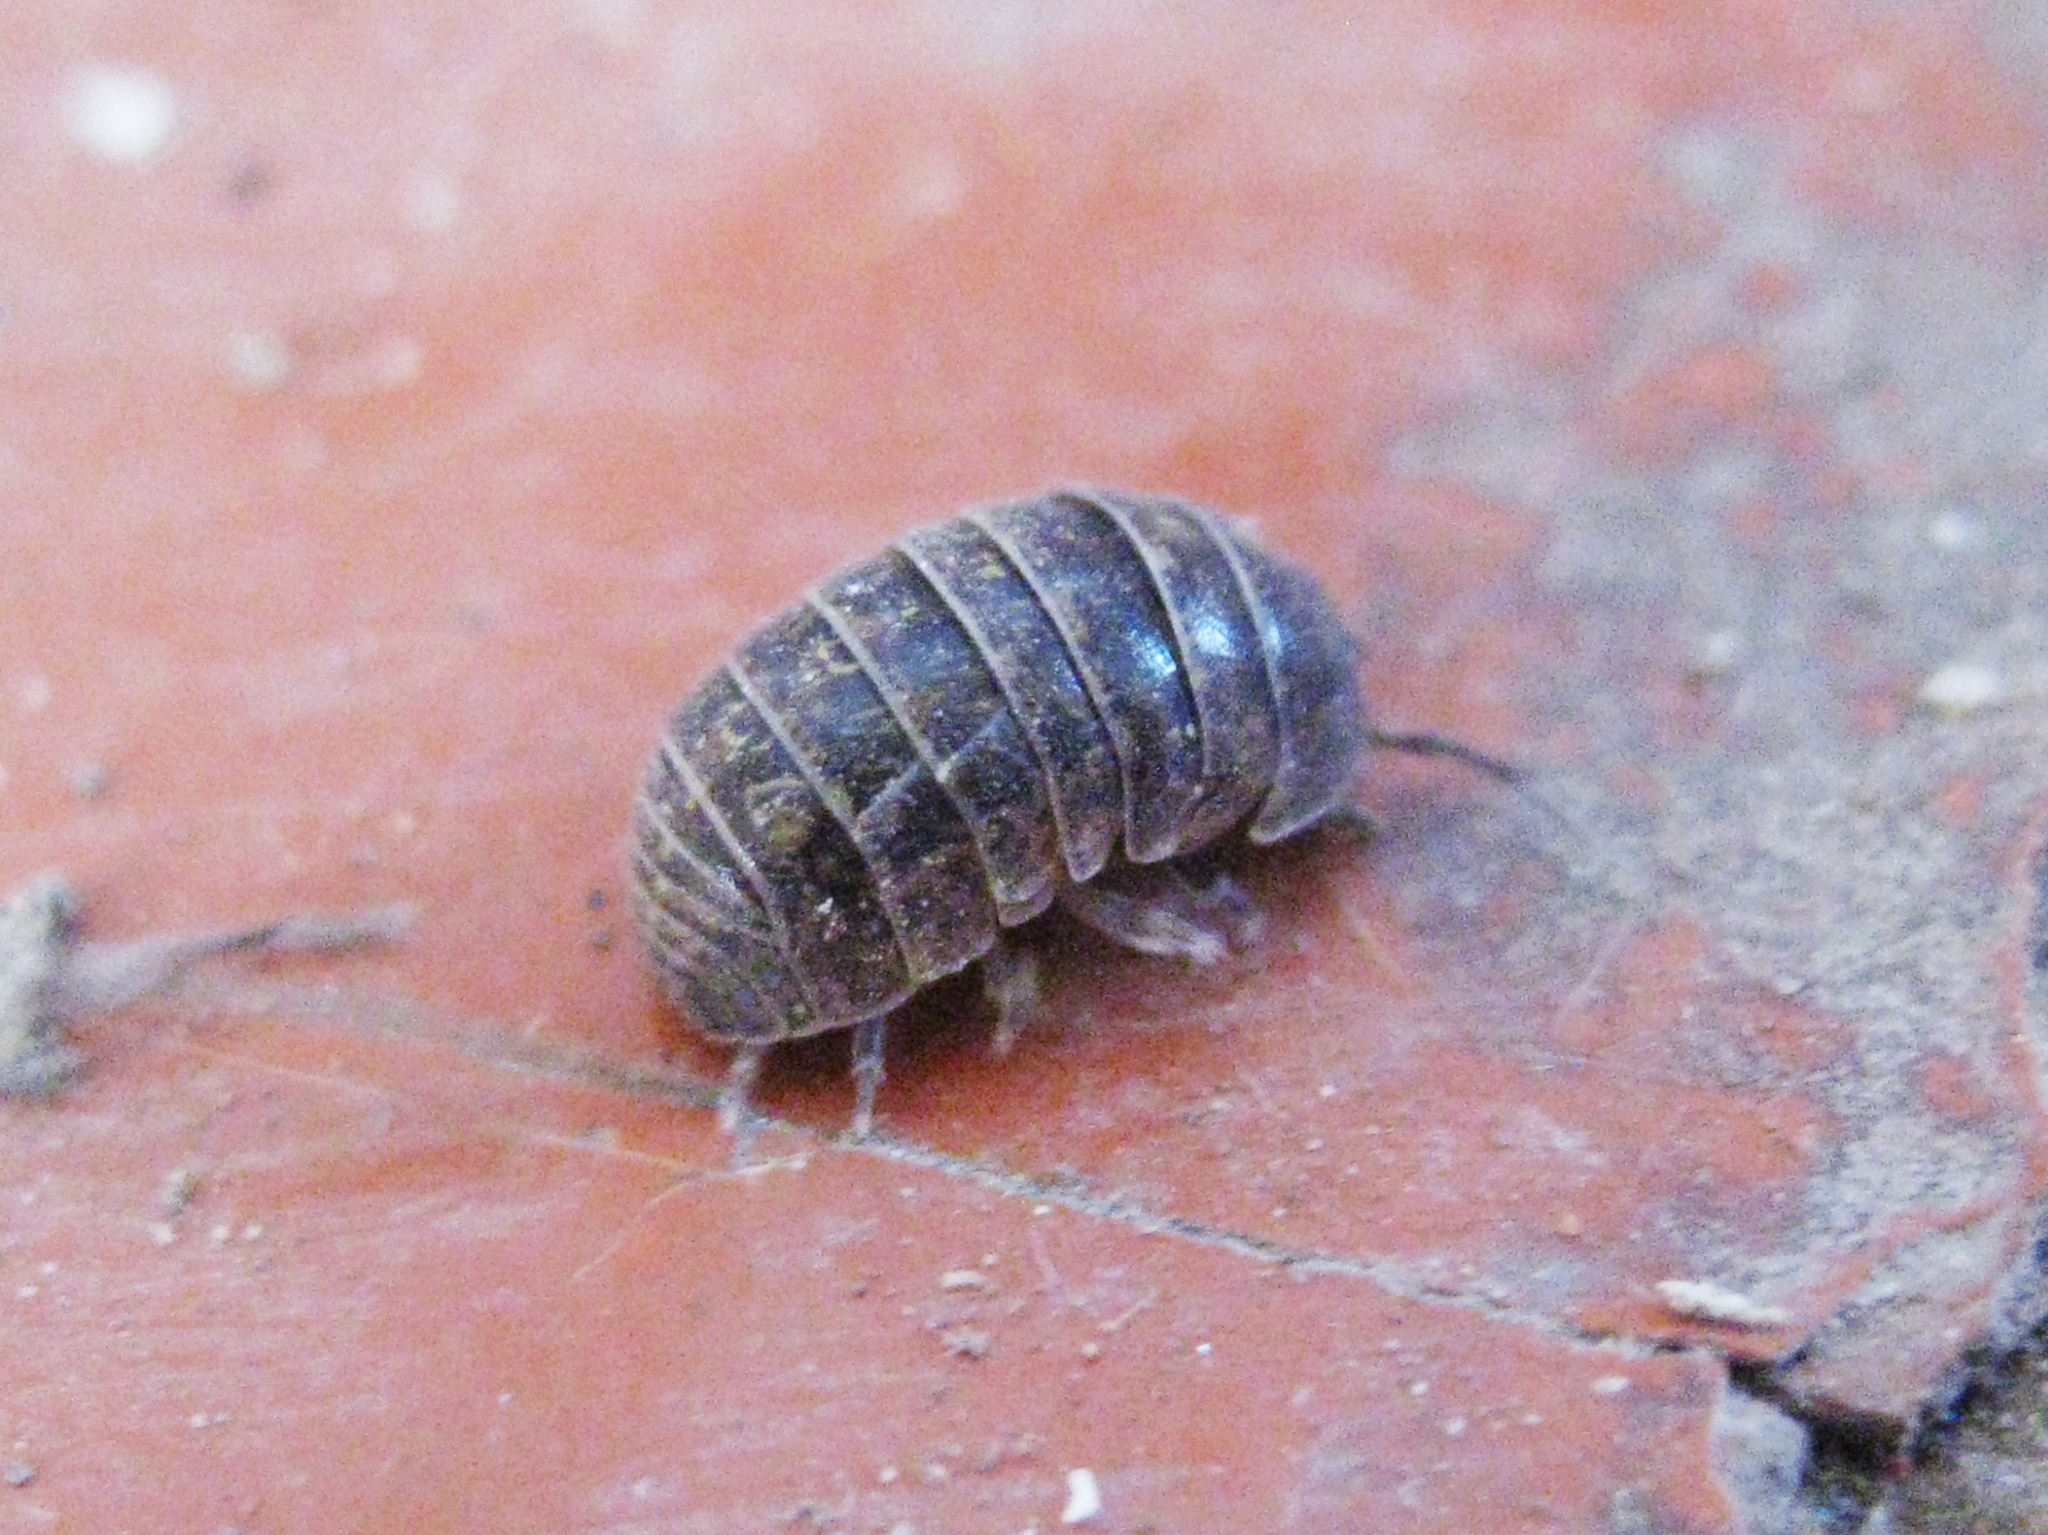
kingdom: Animalia
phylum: Arthropoda
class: Malacostraca
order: Isopoda
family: Armadillidiidae
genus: Armadillidium
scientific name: Armadillidium vulgare
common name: Common pill woodlouse
